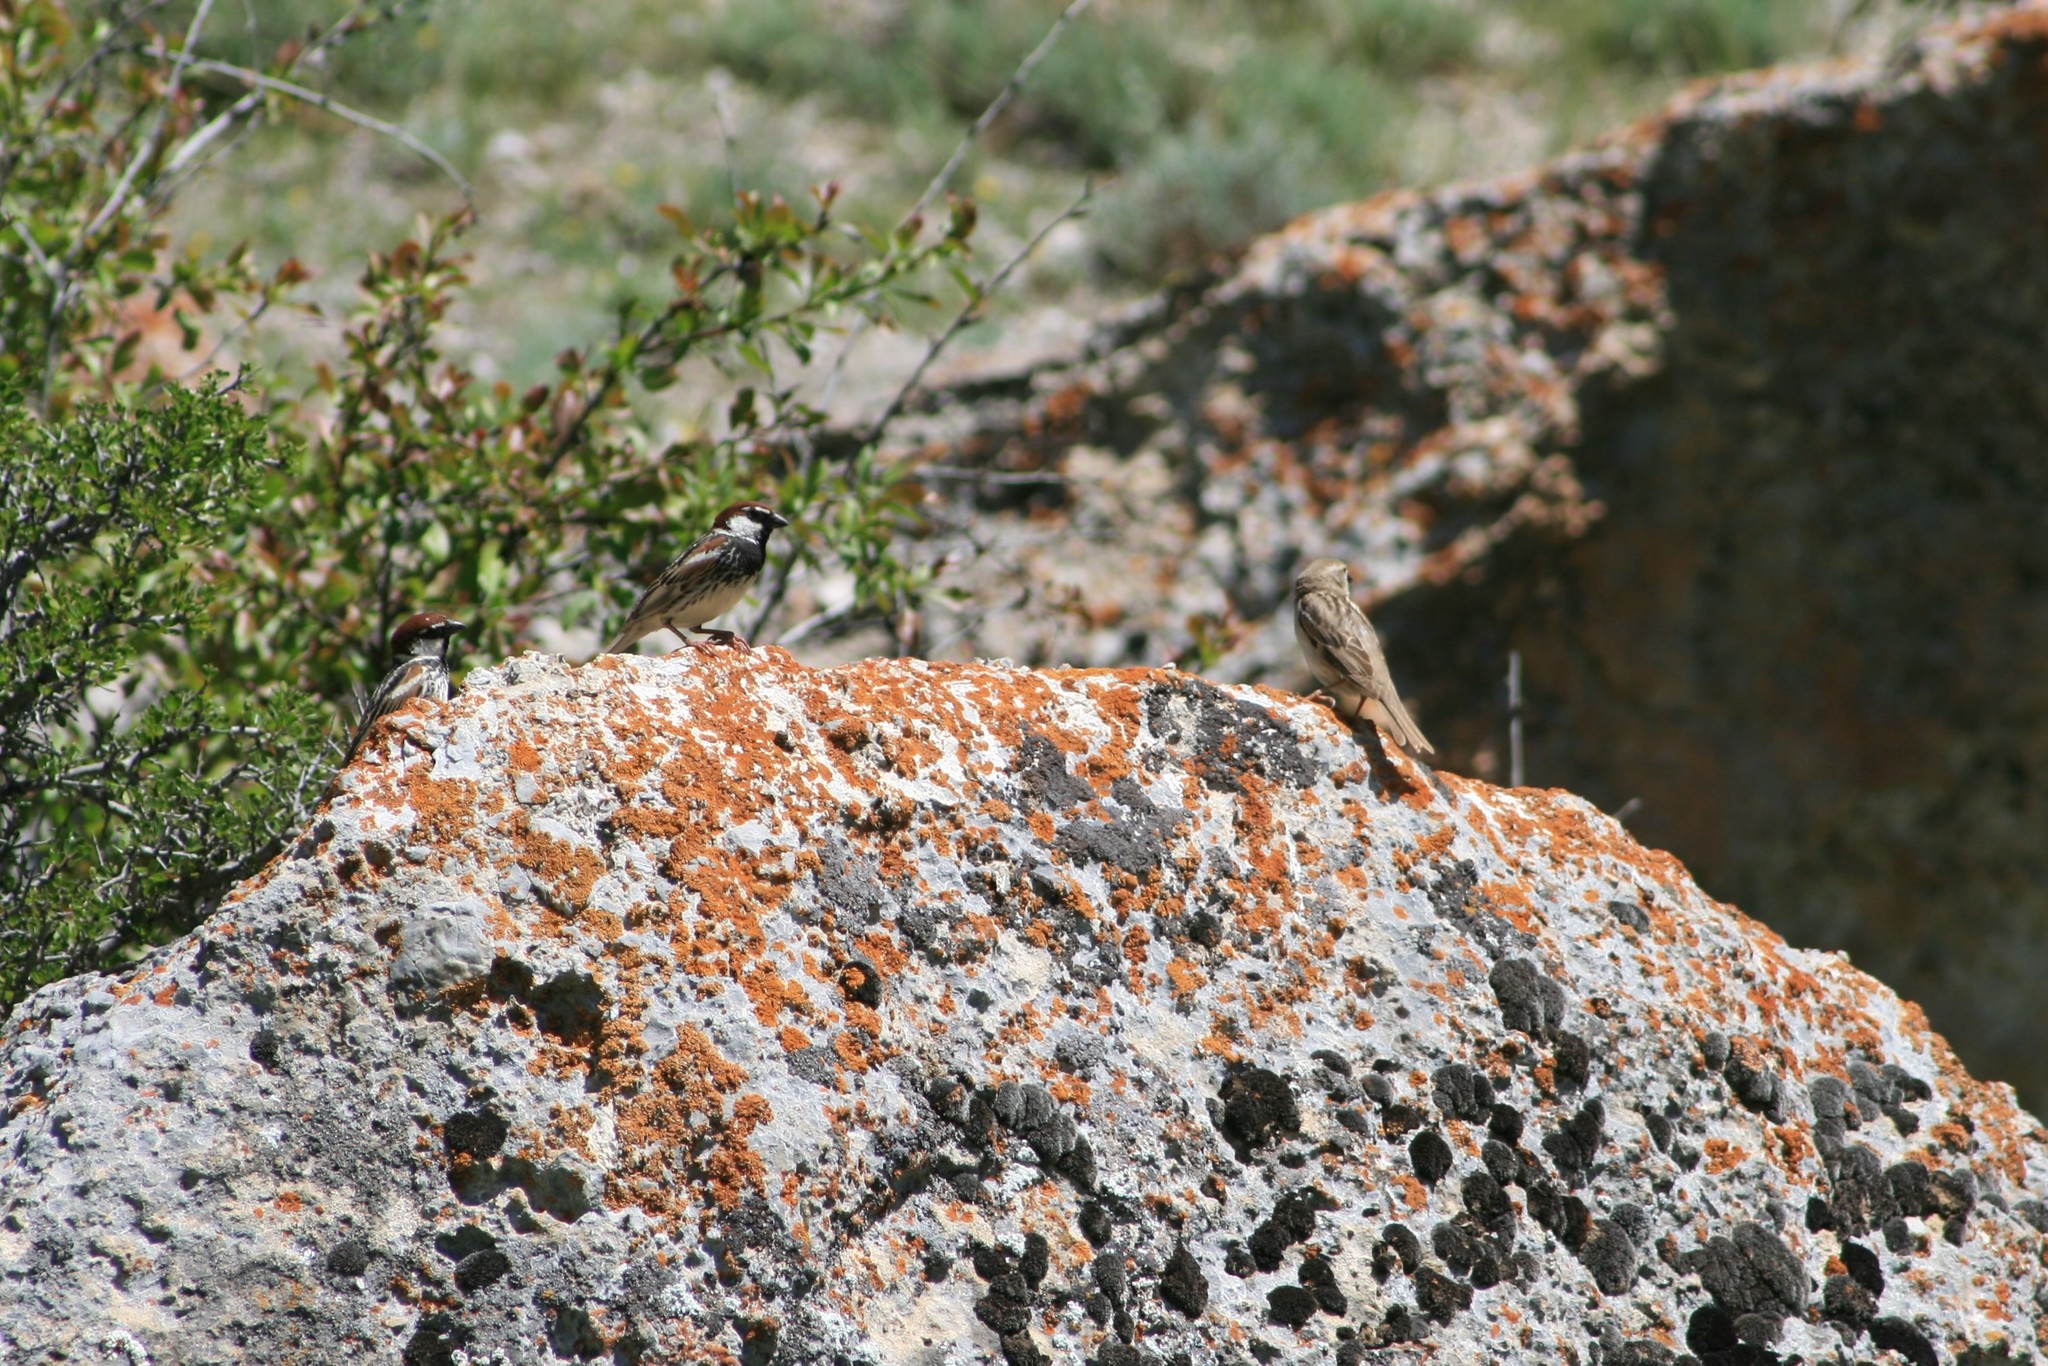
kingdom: Animalia
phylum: Chordata
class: Aves
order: Passeriformes
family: Passeridae
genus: Passer
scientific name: Passer hispaniolensis
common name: Spanish sparrow
